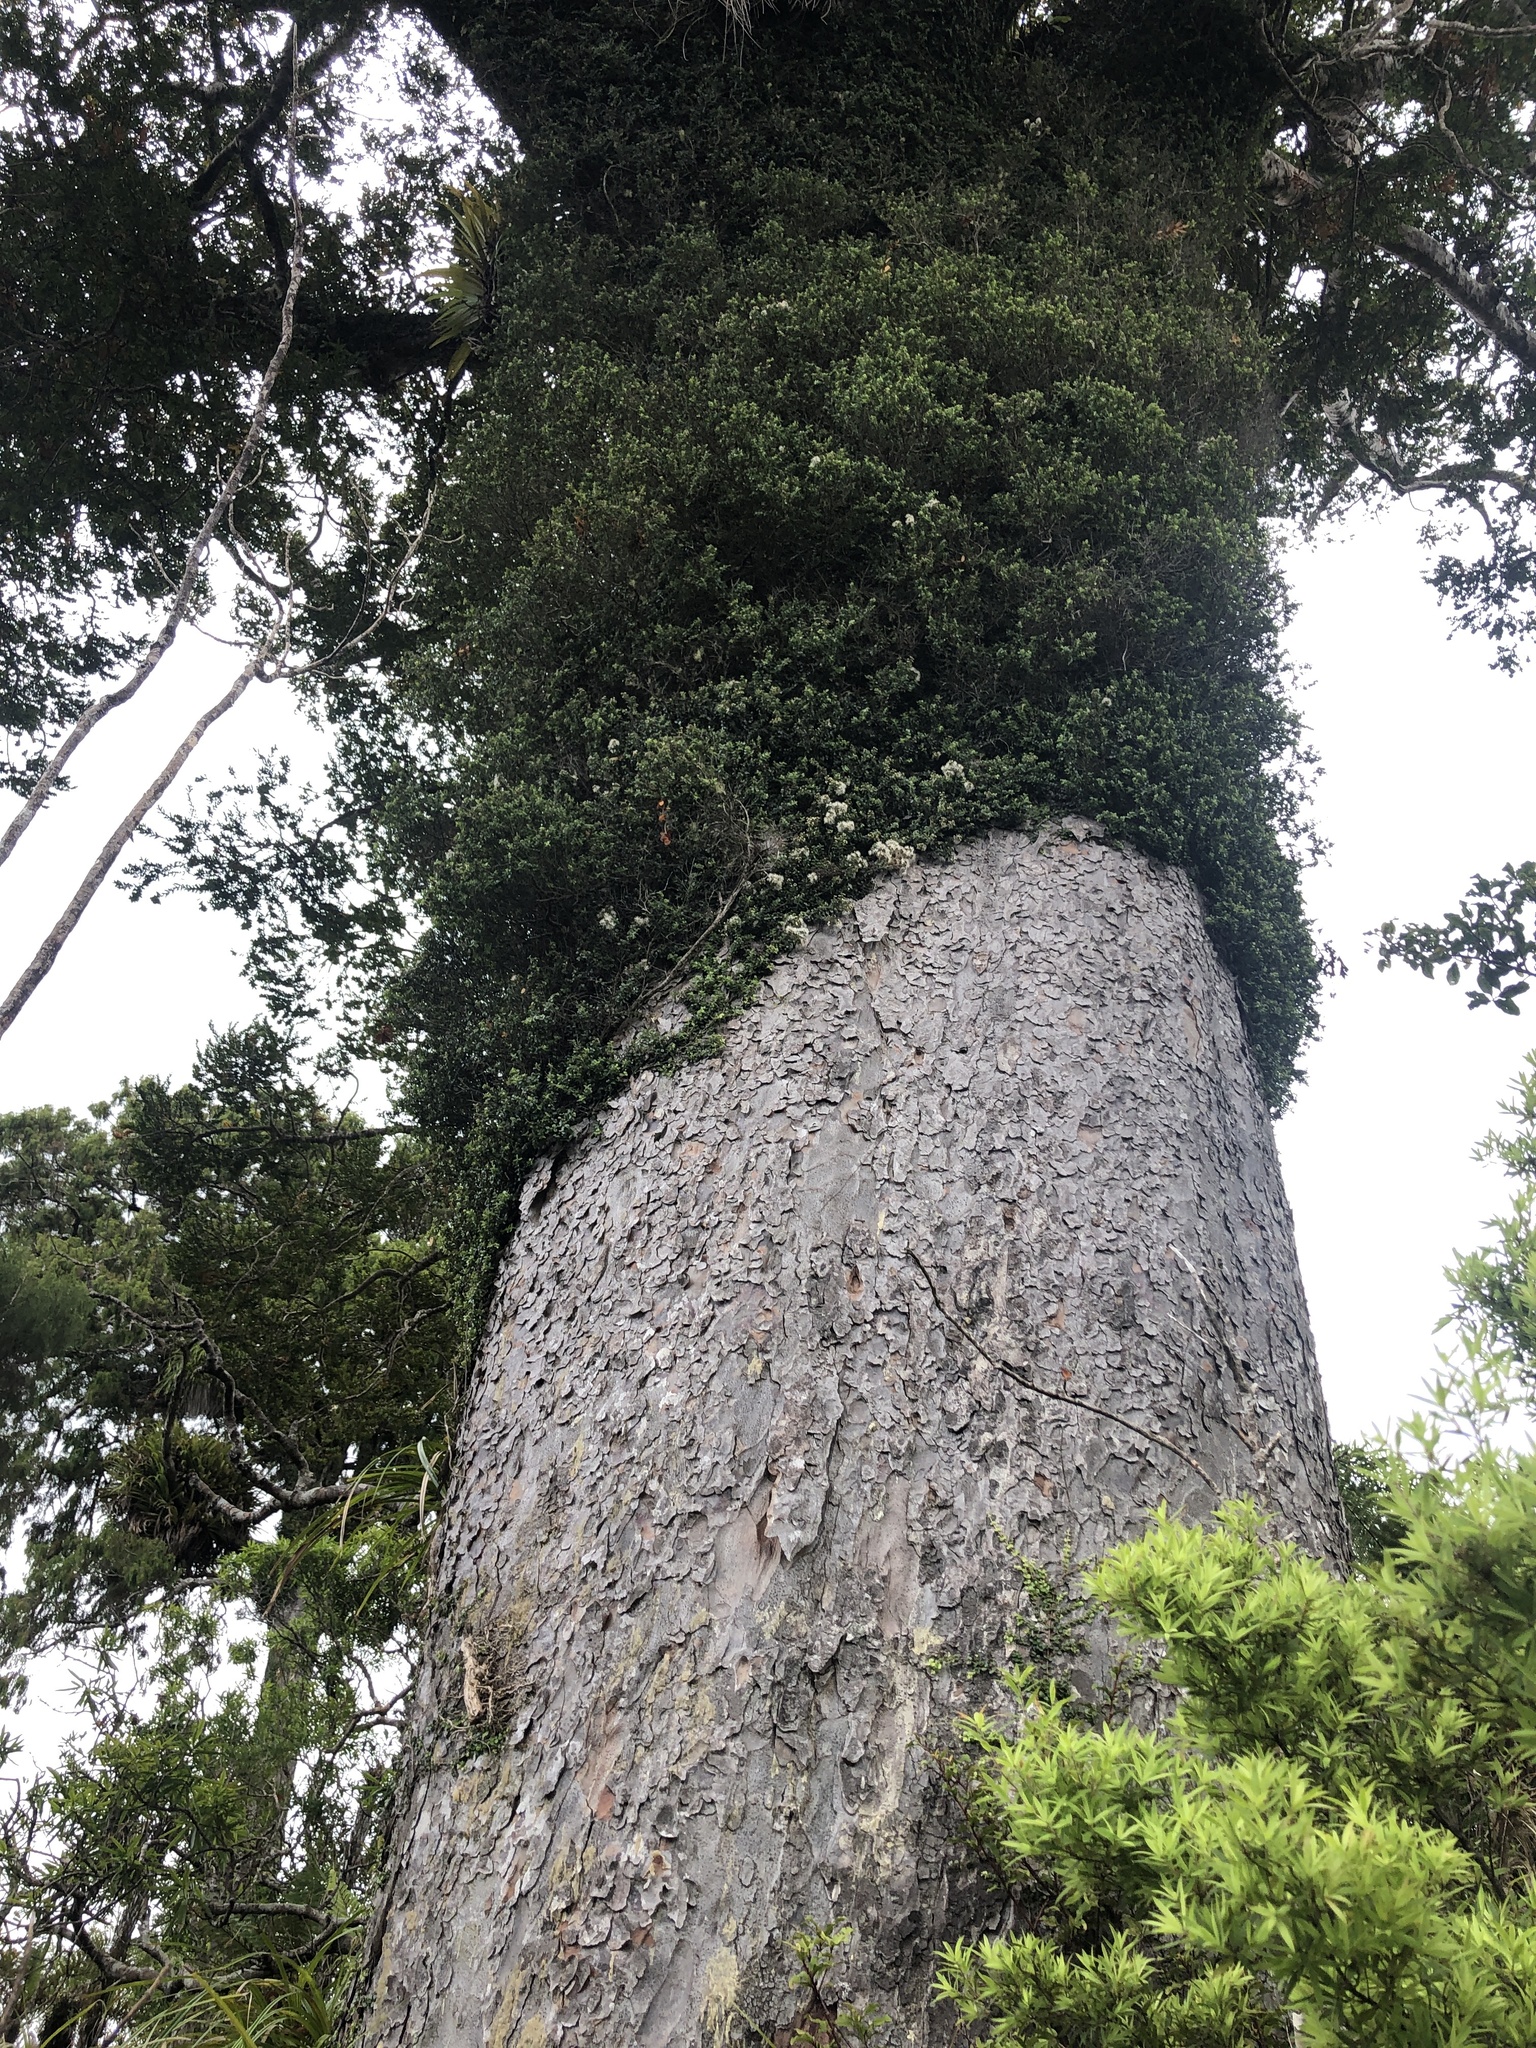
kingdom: Plantae
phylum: Tracheophyta
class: Magnoliopsida
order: Myrtales
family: Myrtaceae
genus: Metrosideros
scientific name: Metrosideros perforata
